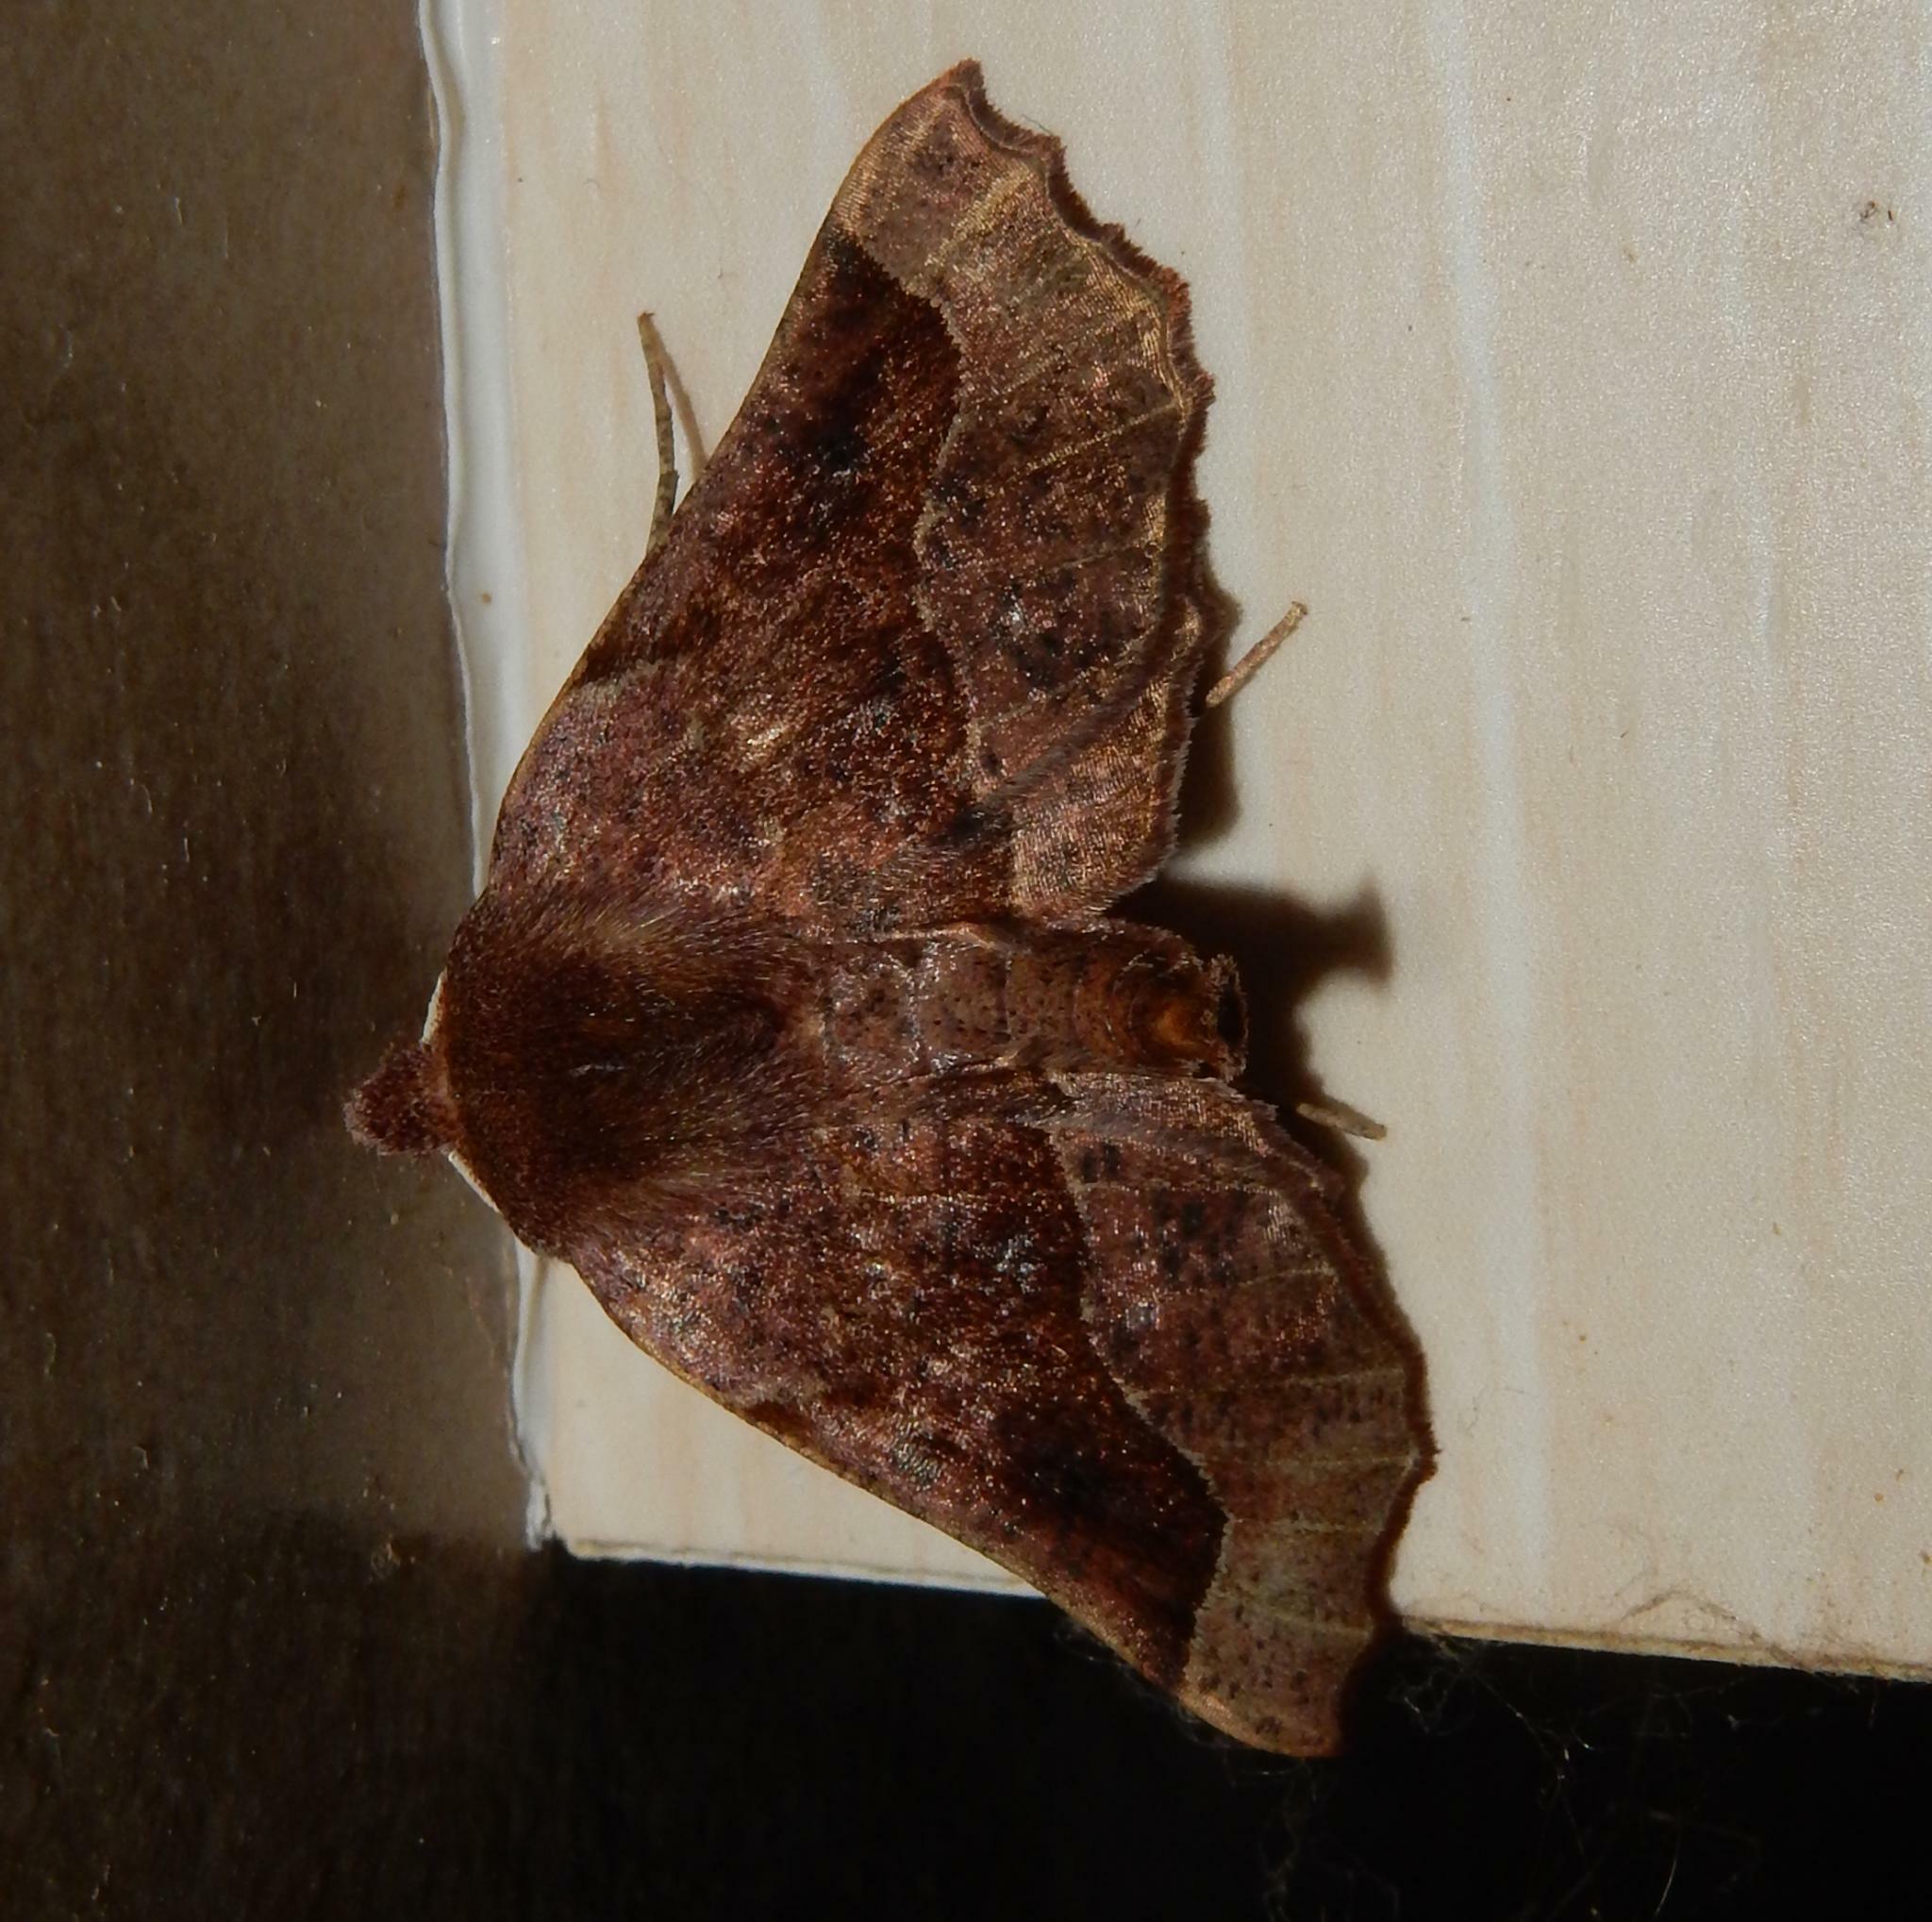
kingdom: Animalia
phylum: Arthropoda
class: Insecta
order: Lepidoptera
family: Geometridae
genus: Drepanogynis
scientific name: Drepanogynis determinata
